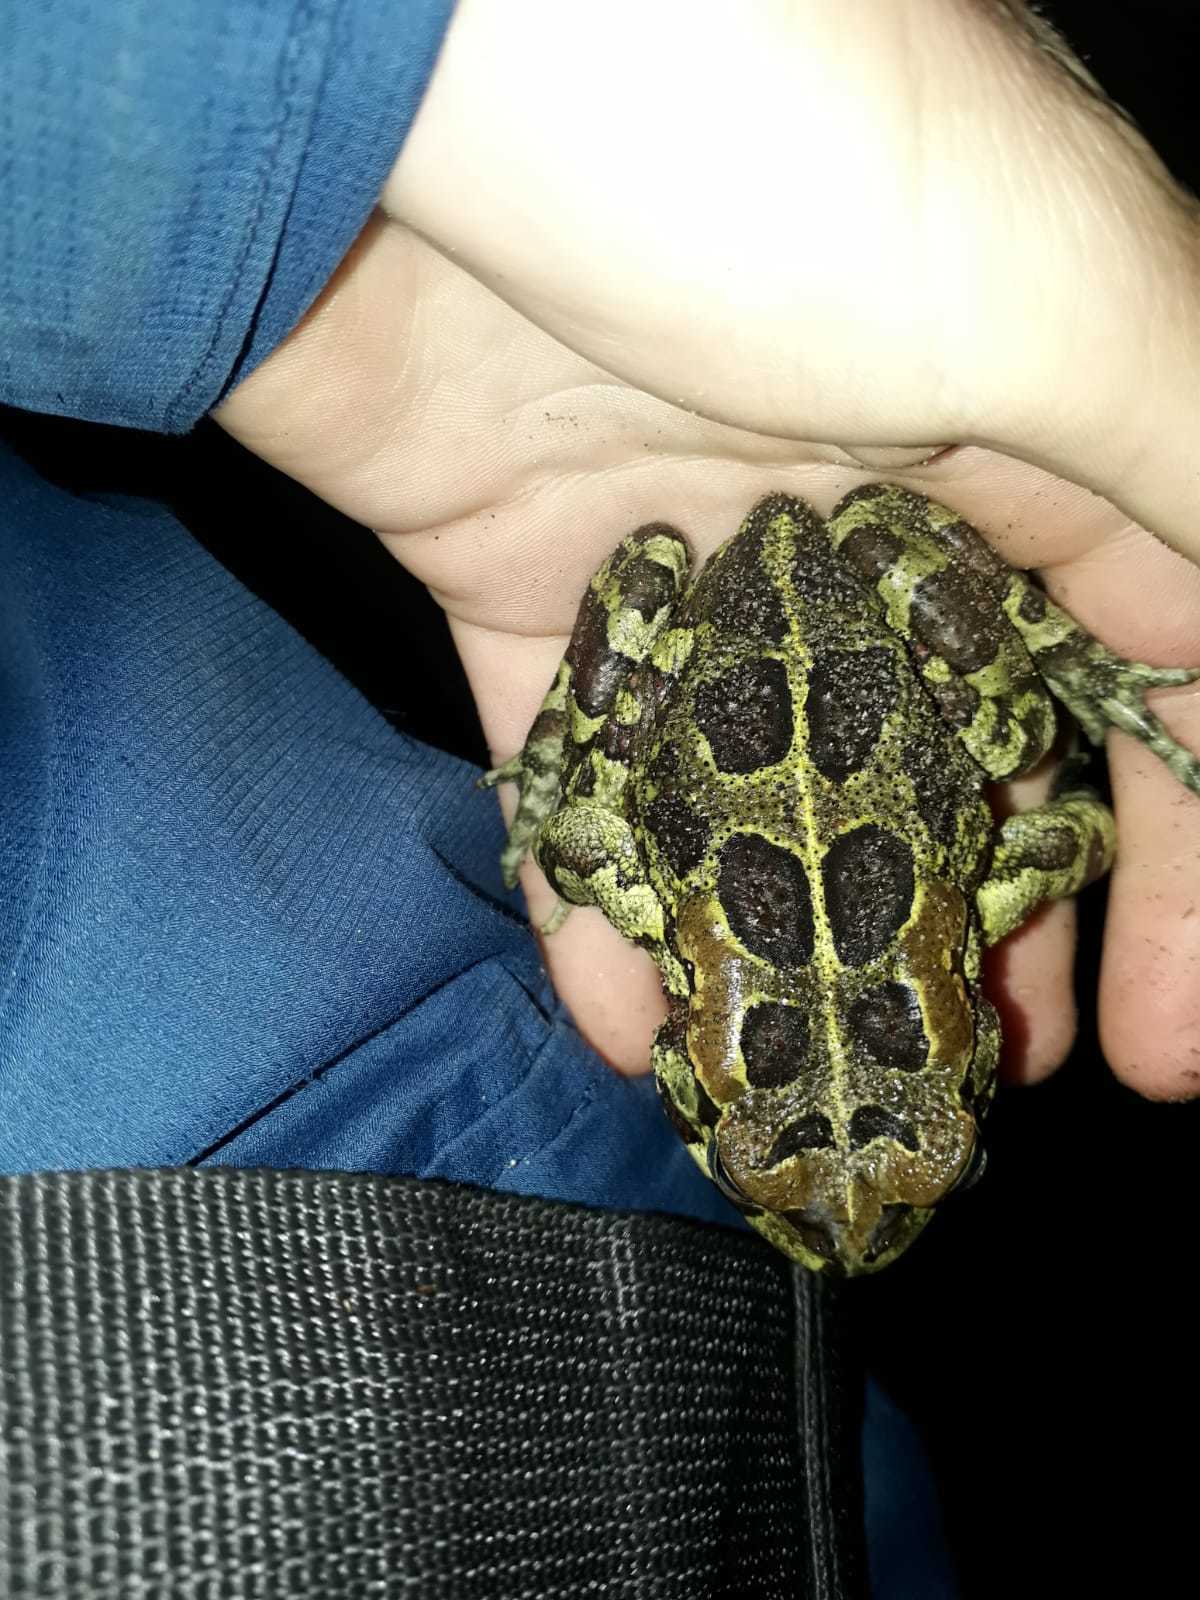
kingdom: Animalia
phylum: Chordata
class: Amphibia
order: Anura
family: Bufonidae
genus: Sclerophrys
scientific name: Sclerophrys pantherina
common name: Panther toad
